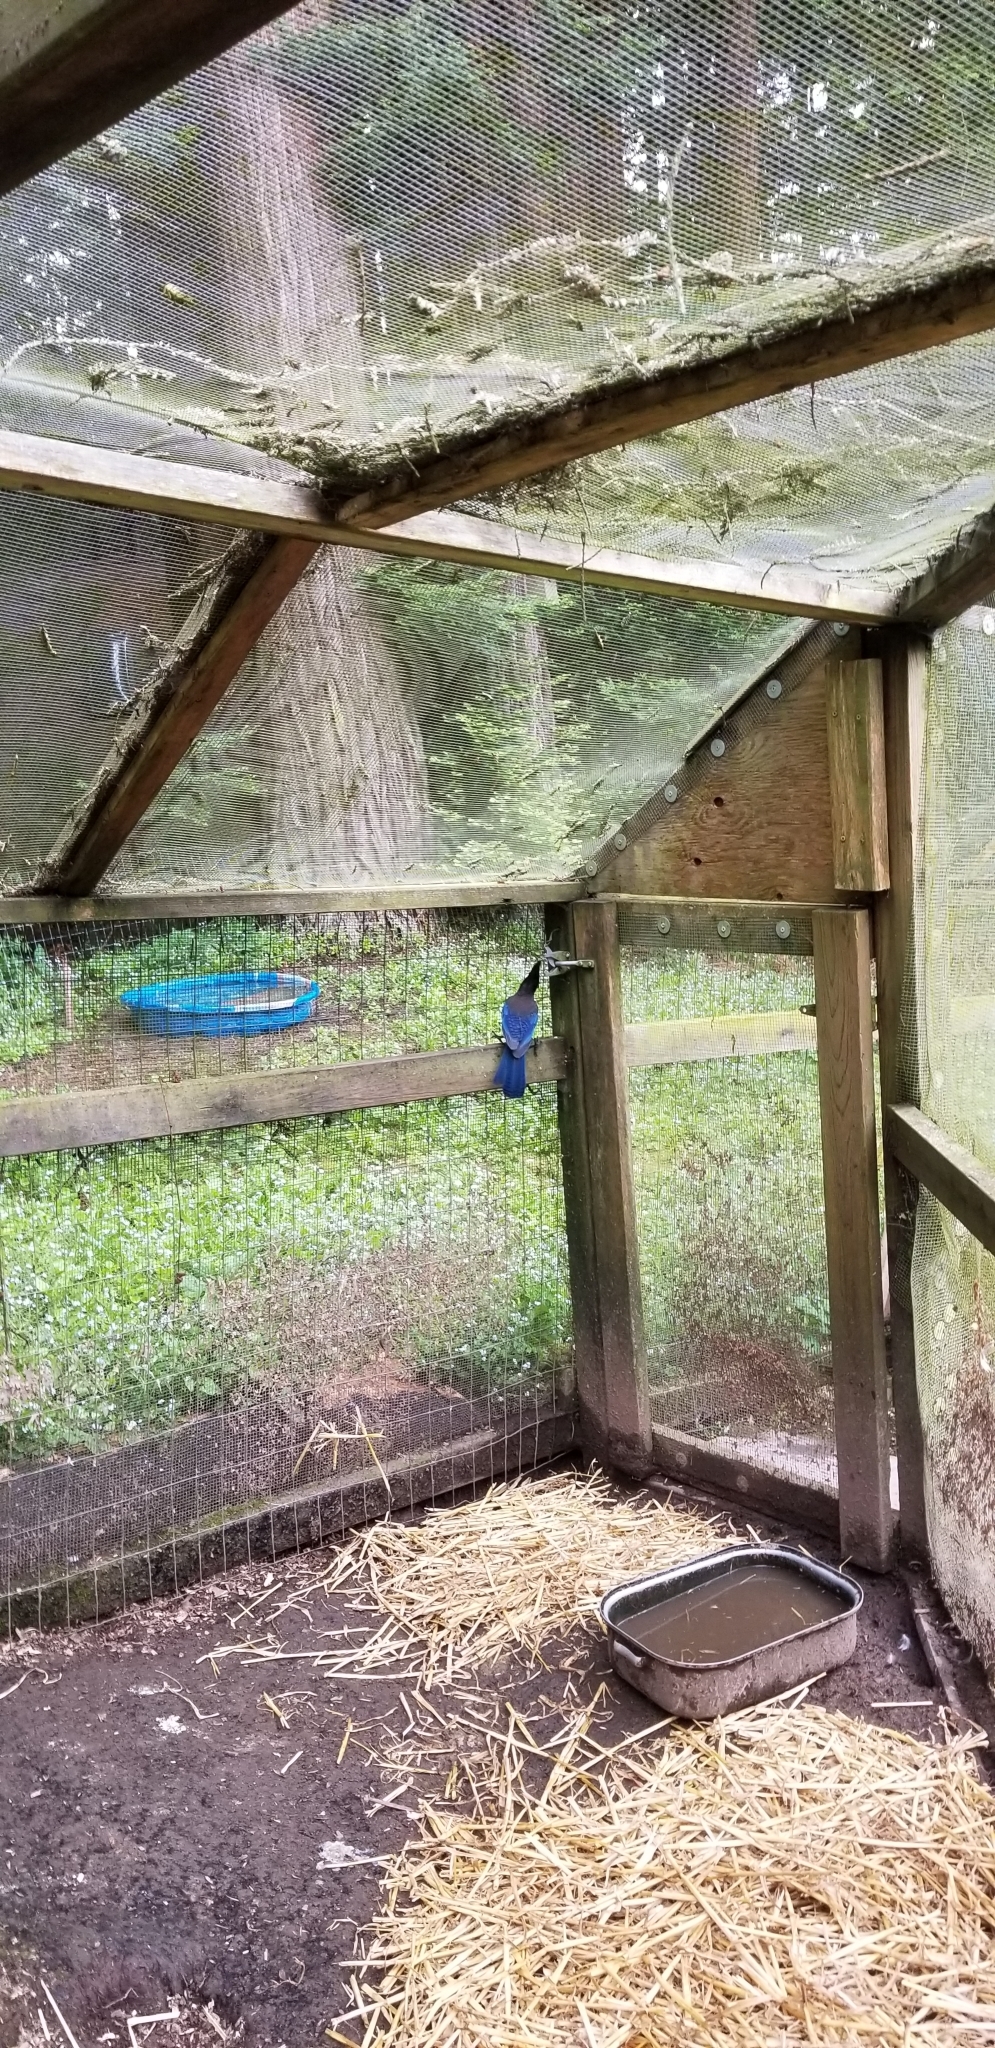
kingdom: Animalia
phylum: Chordata
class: Aves
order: Passeriformes
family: Corvidae
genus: Cyanocitta
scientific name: Cyanocitta stelleri
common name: Steller's jay
